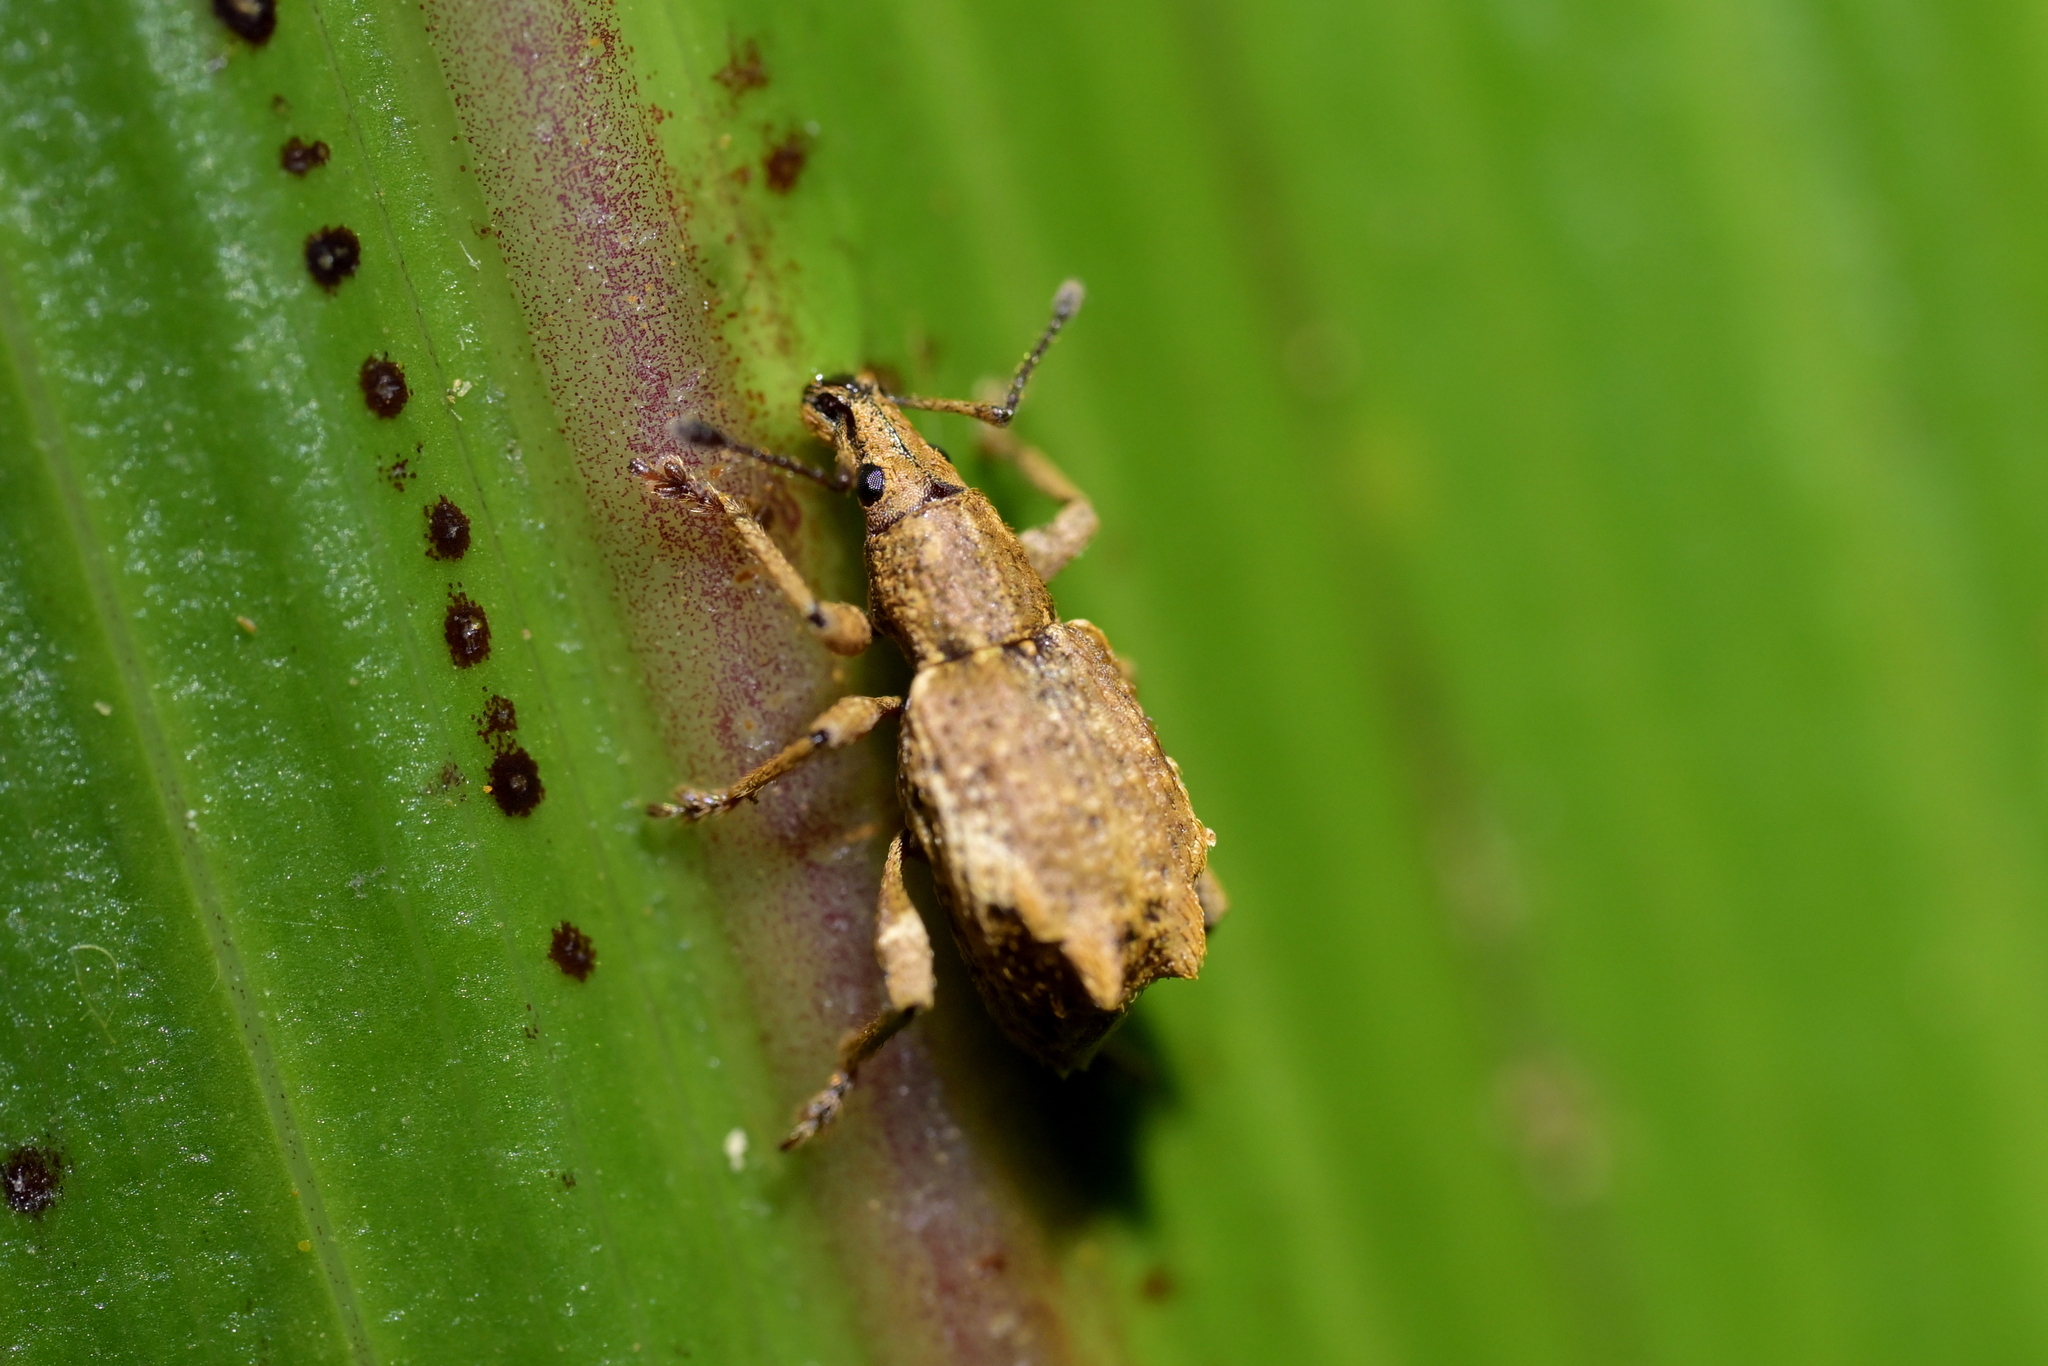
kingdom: Animalia
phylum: Arthropoda
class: Insecta
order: Coleoptera
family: Curculionidae
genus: Catoptes
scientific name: Catoptes amotus
